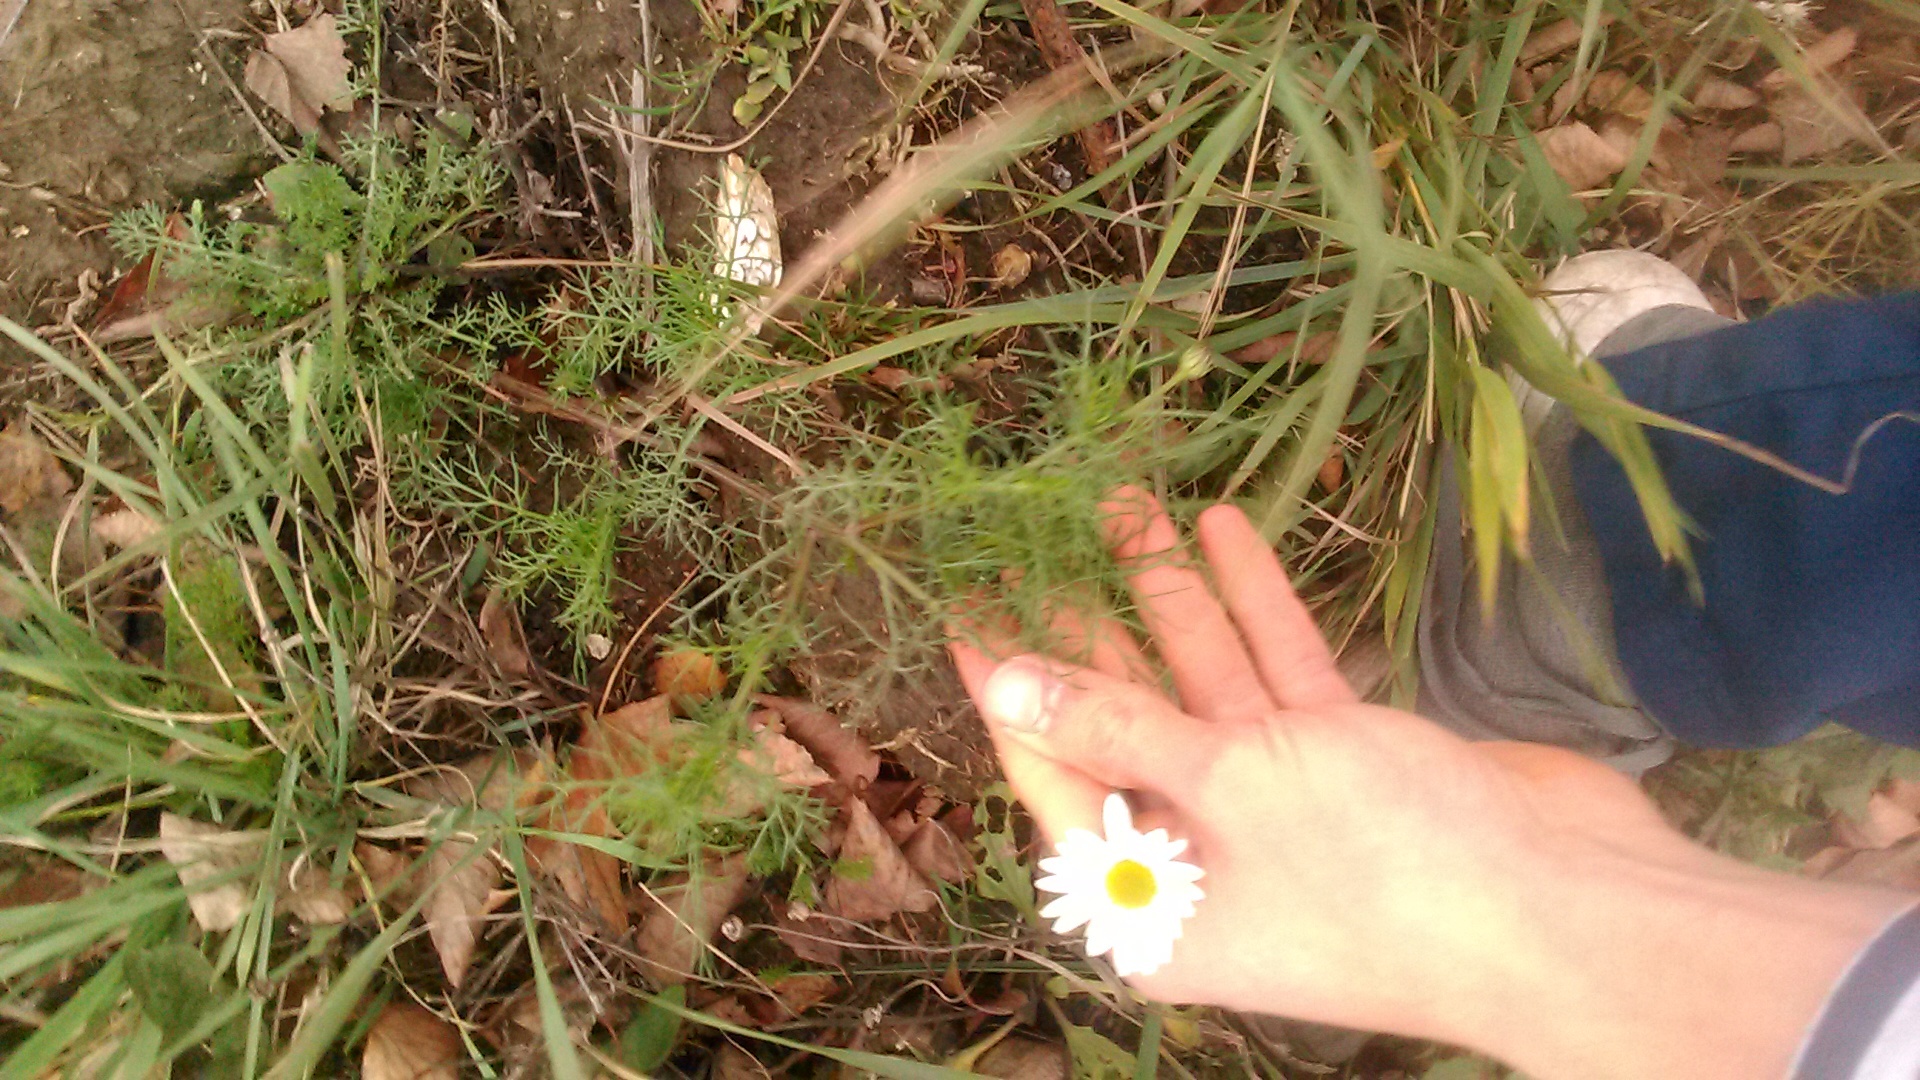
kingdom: Plantae
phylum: Tracheophyta
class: Magnoliopsida
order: Asterales
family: Asteraceae
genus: Tripleurospermum
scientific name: Tripleurospermum inodorum
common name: Scentless mayweed
